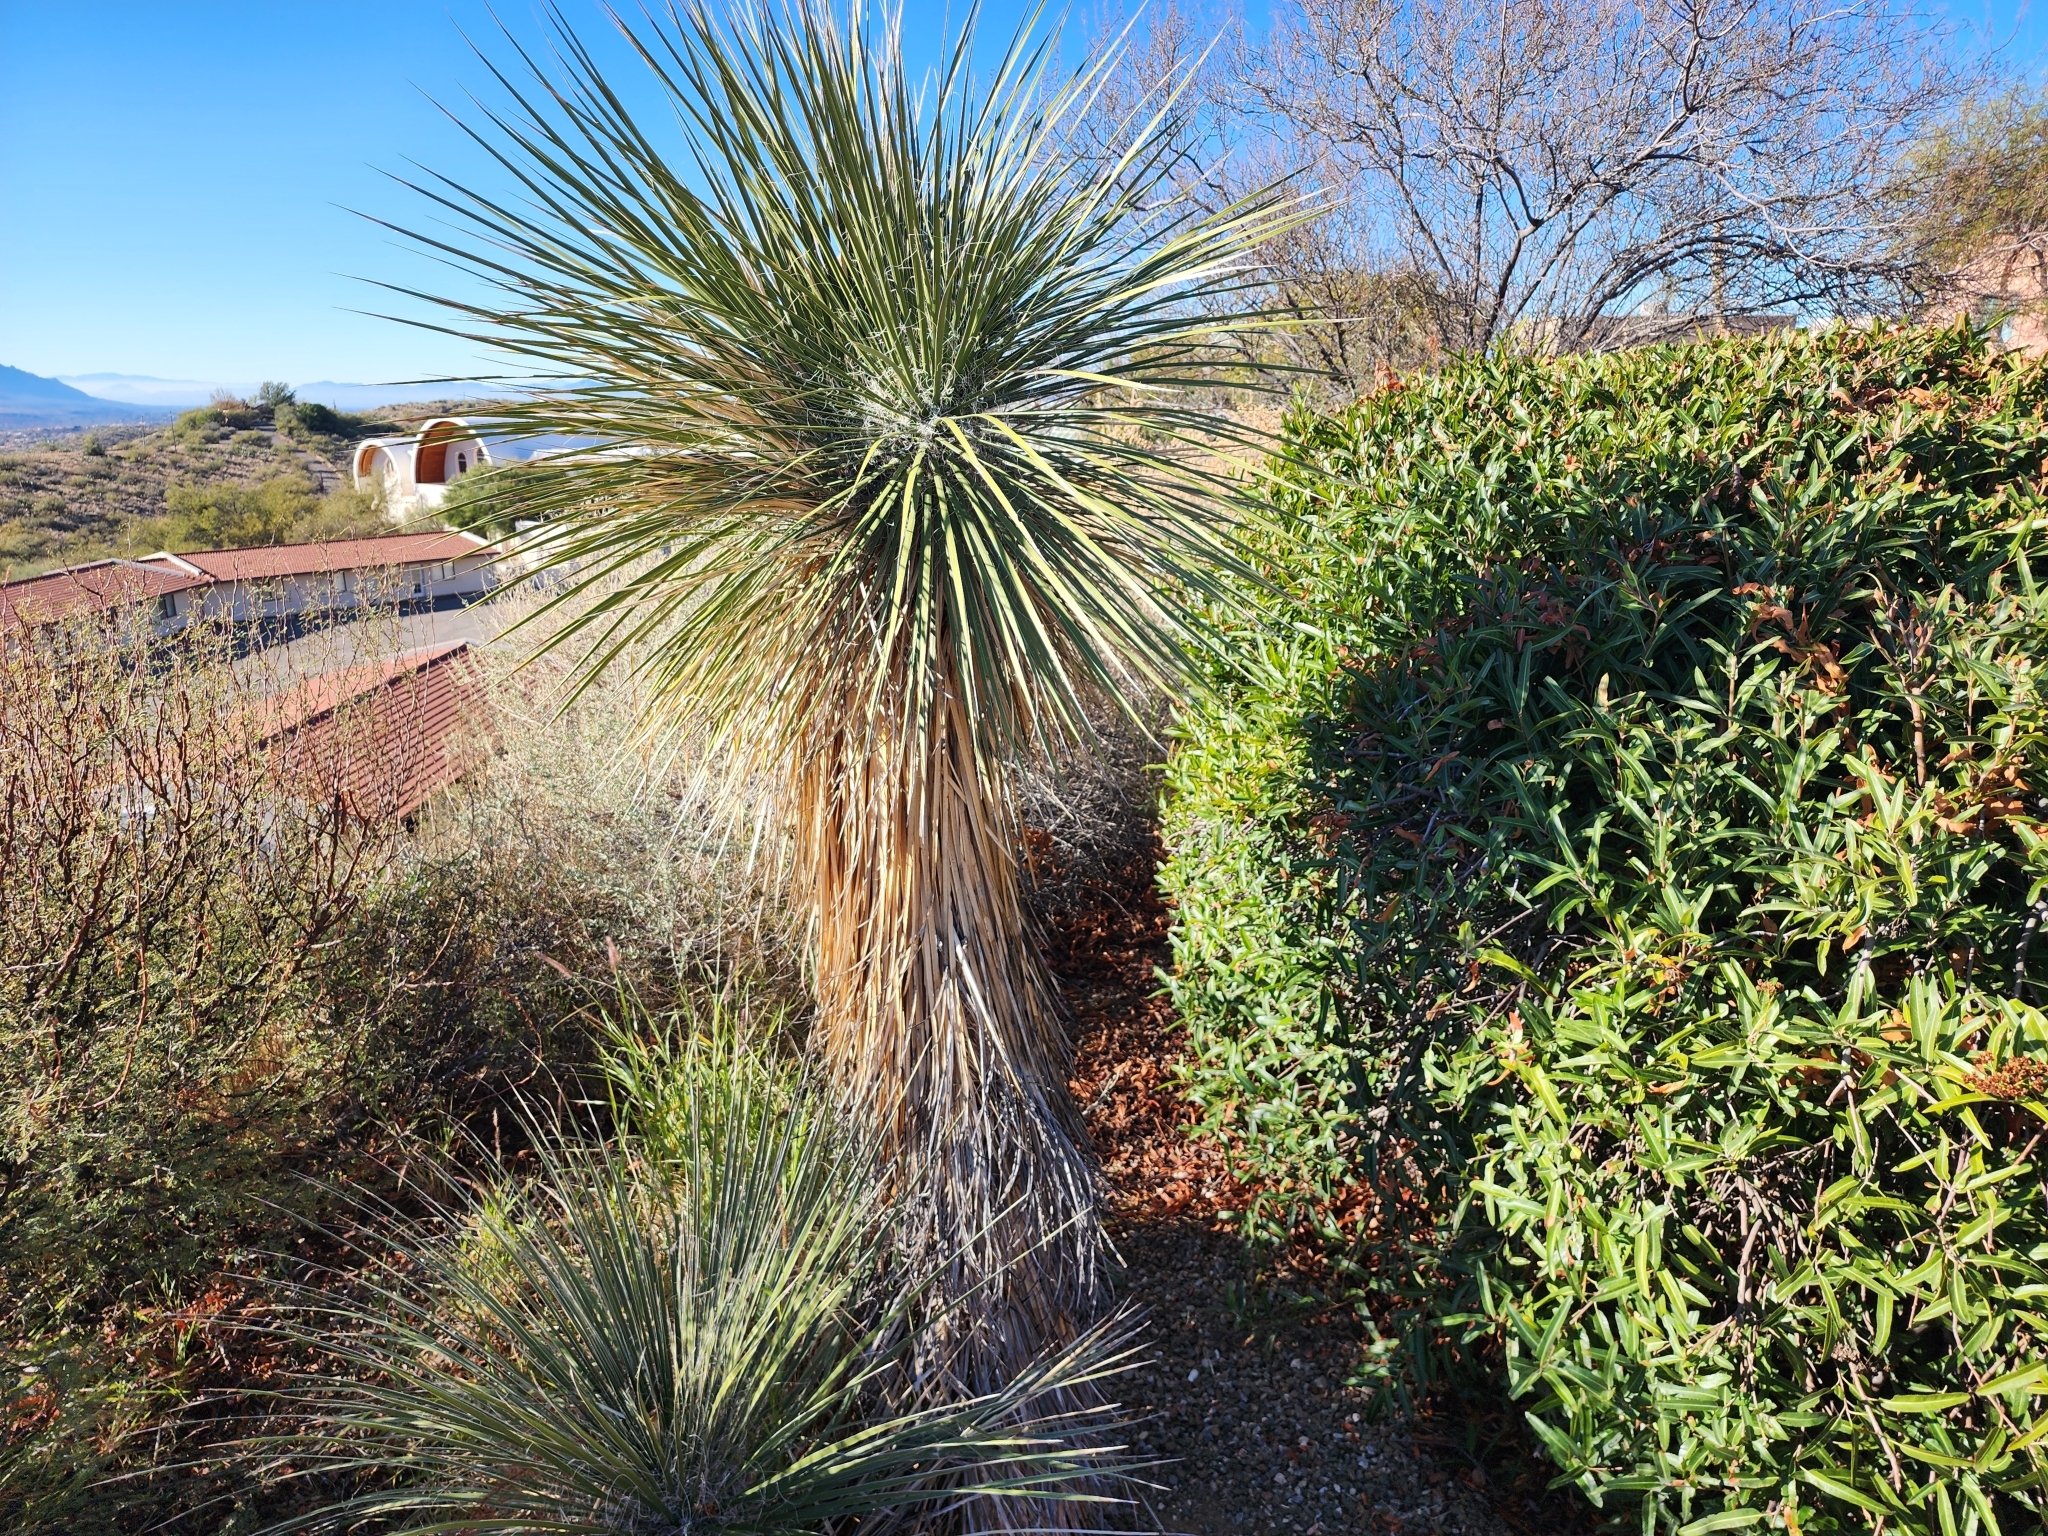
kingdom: Plantae
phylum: Tracheophyta
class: Liliopsida
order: Asparagales
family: Asparagaceae
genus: Yucca
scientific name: Yucca elata
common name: Palmella
